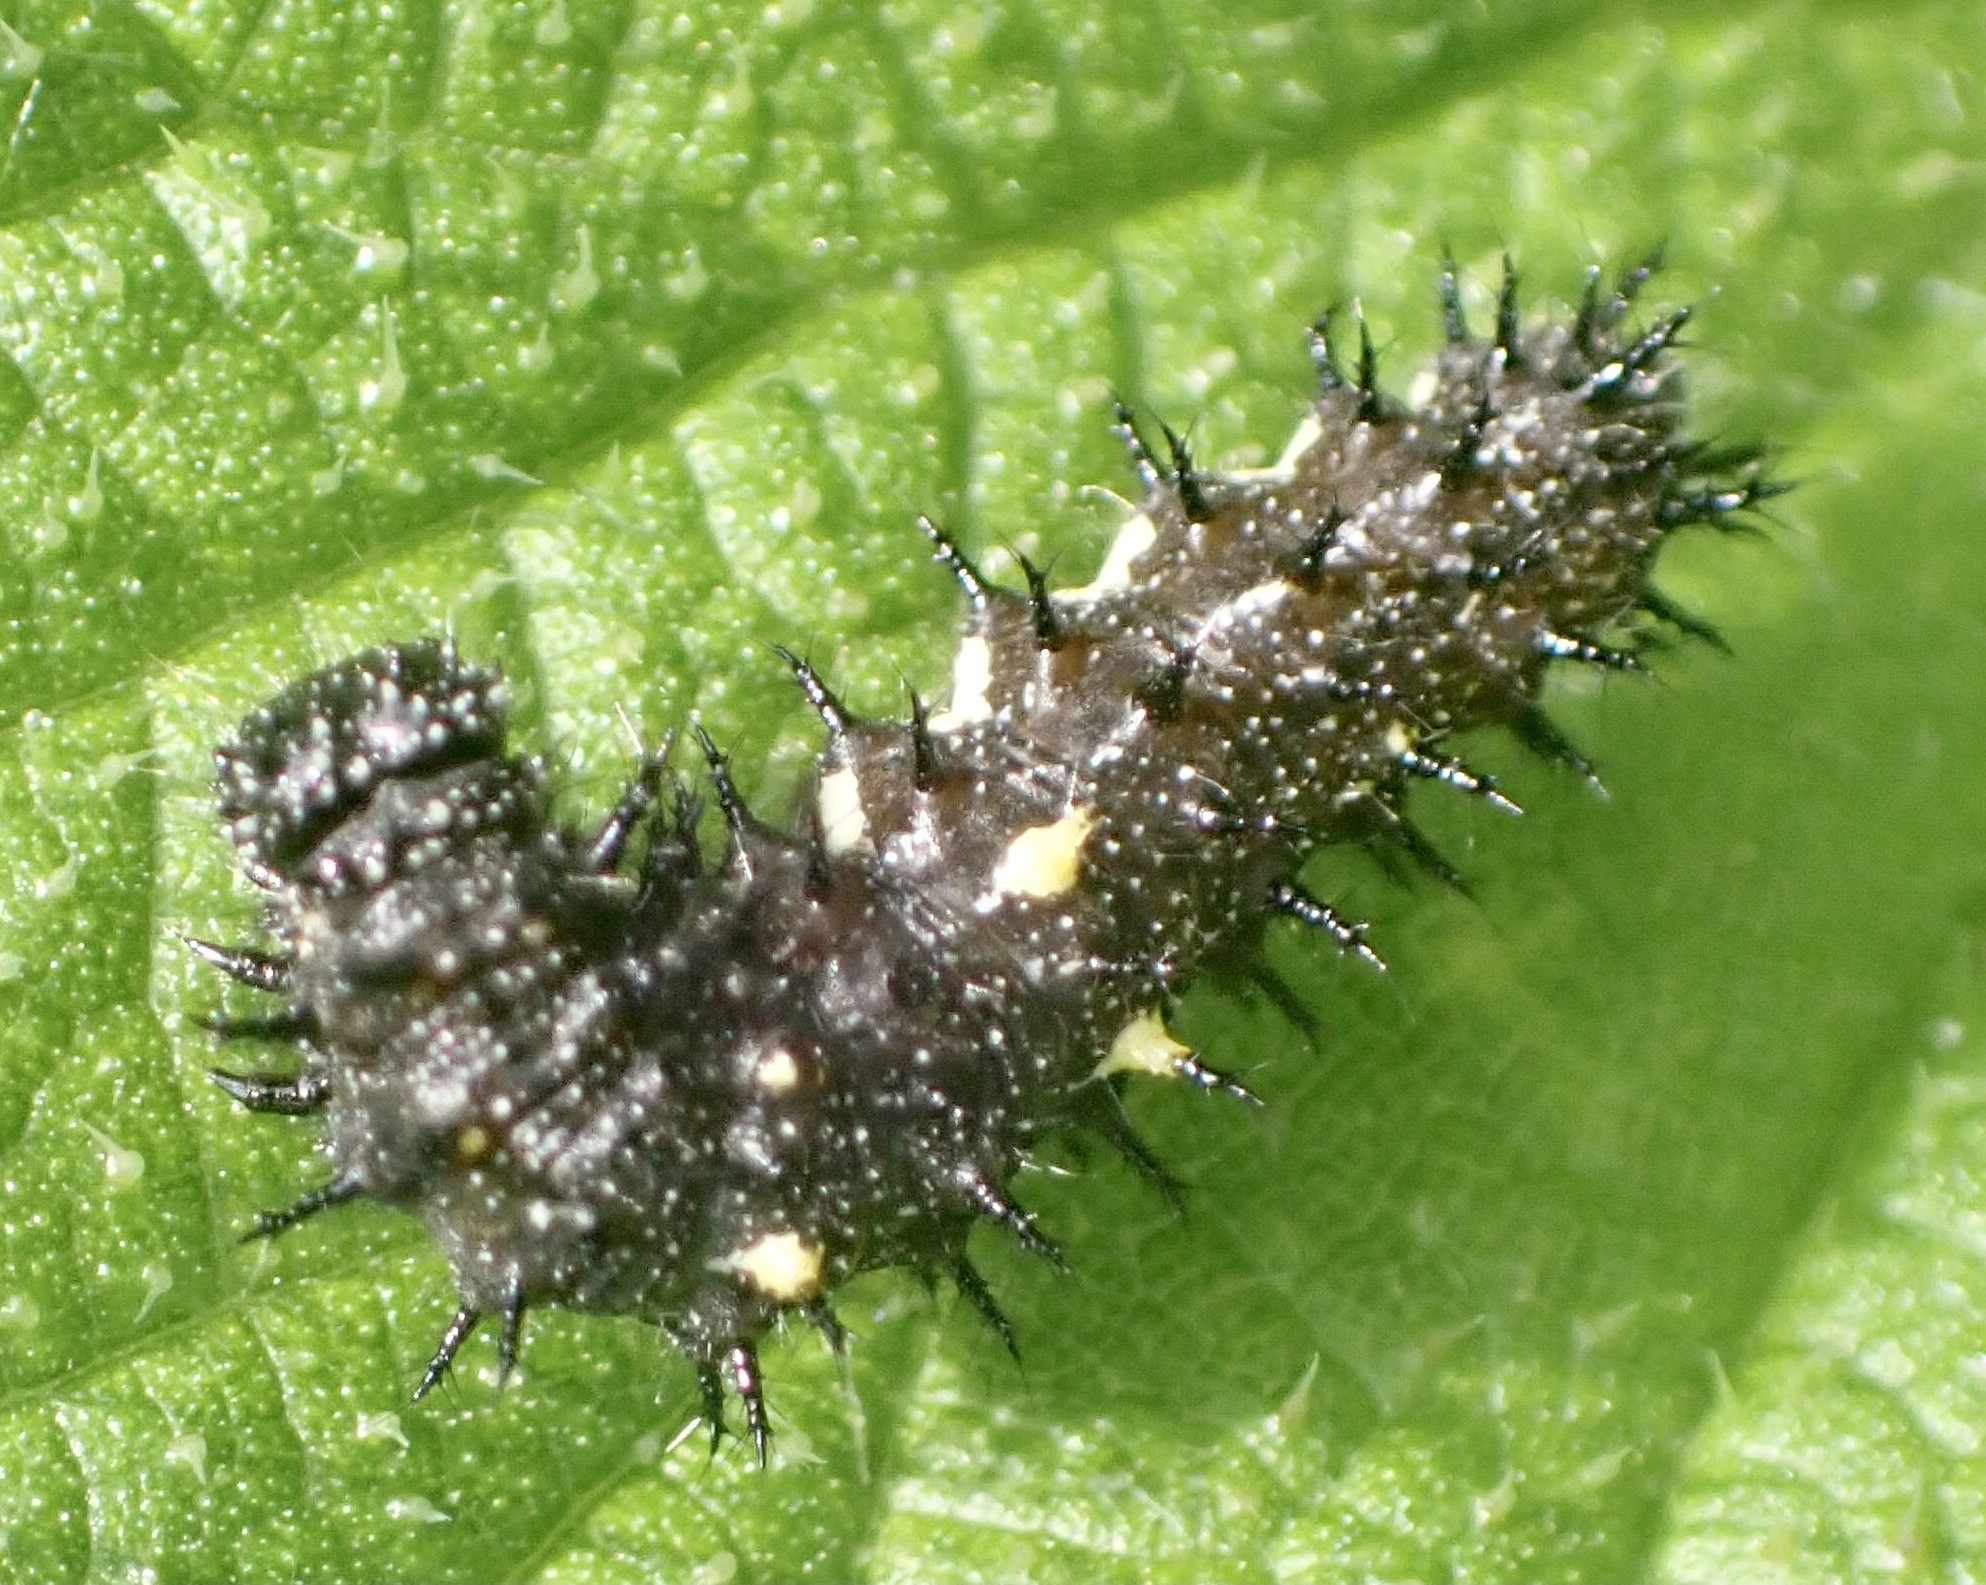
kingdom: Animalia
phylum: Arthropoda
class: Insecta
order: Lepidoptera
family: Nymphalidae
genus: Vanessa
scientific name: Vanessa atalanta
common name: Red admiral
